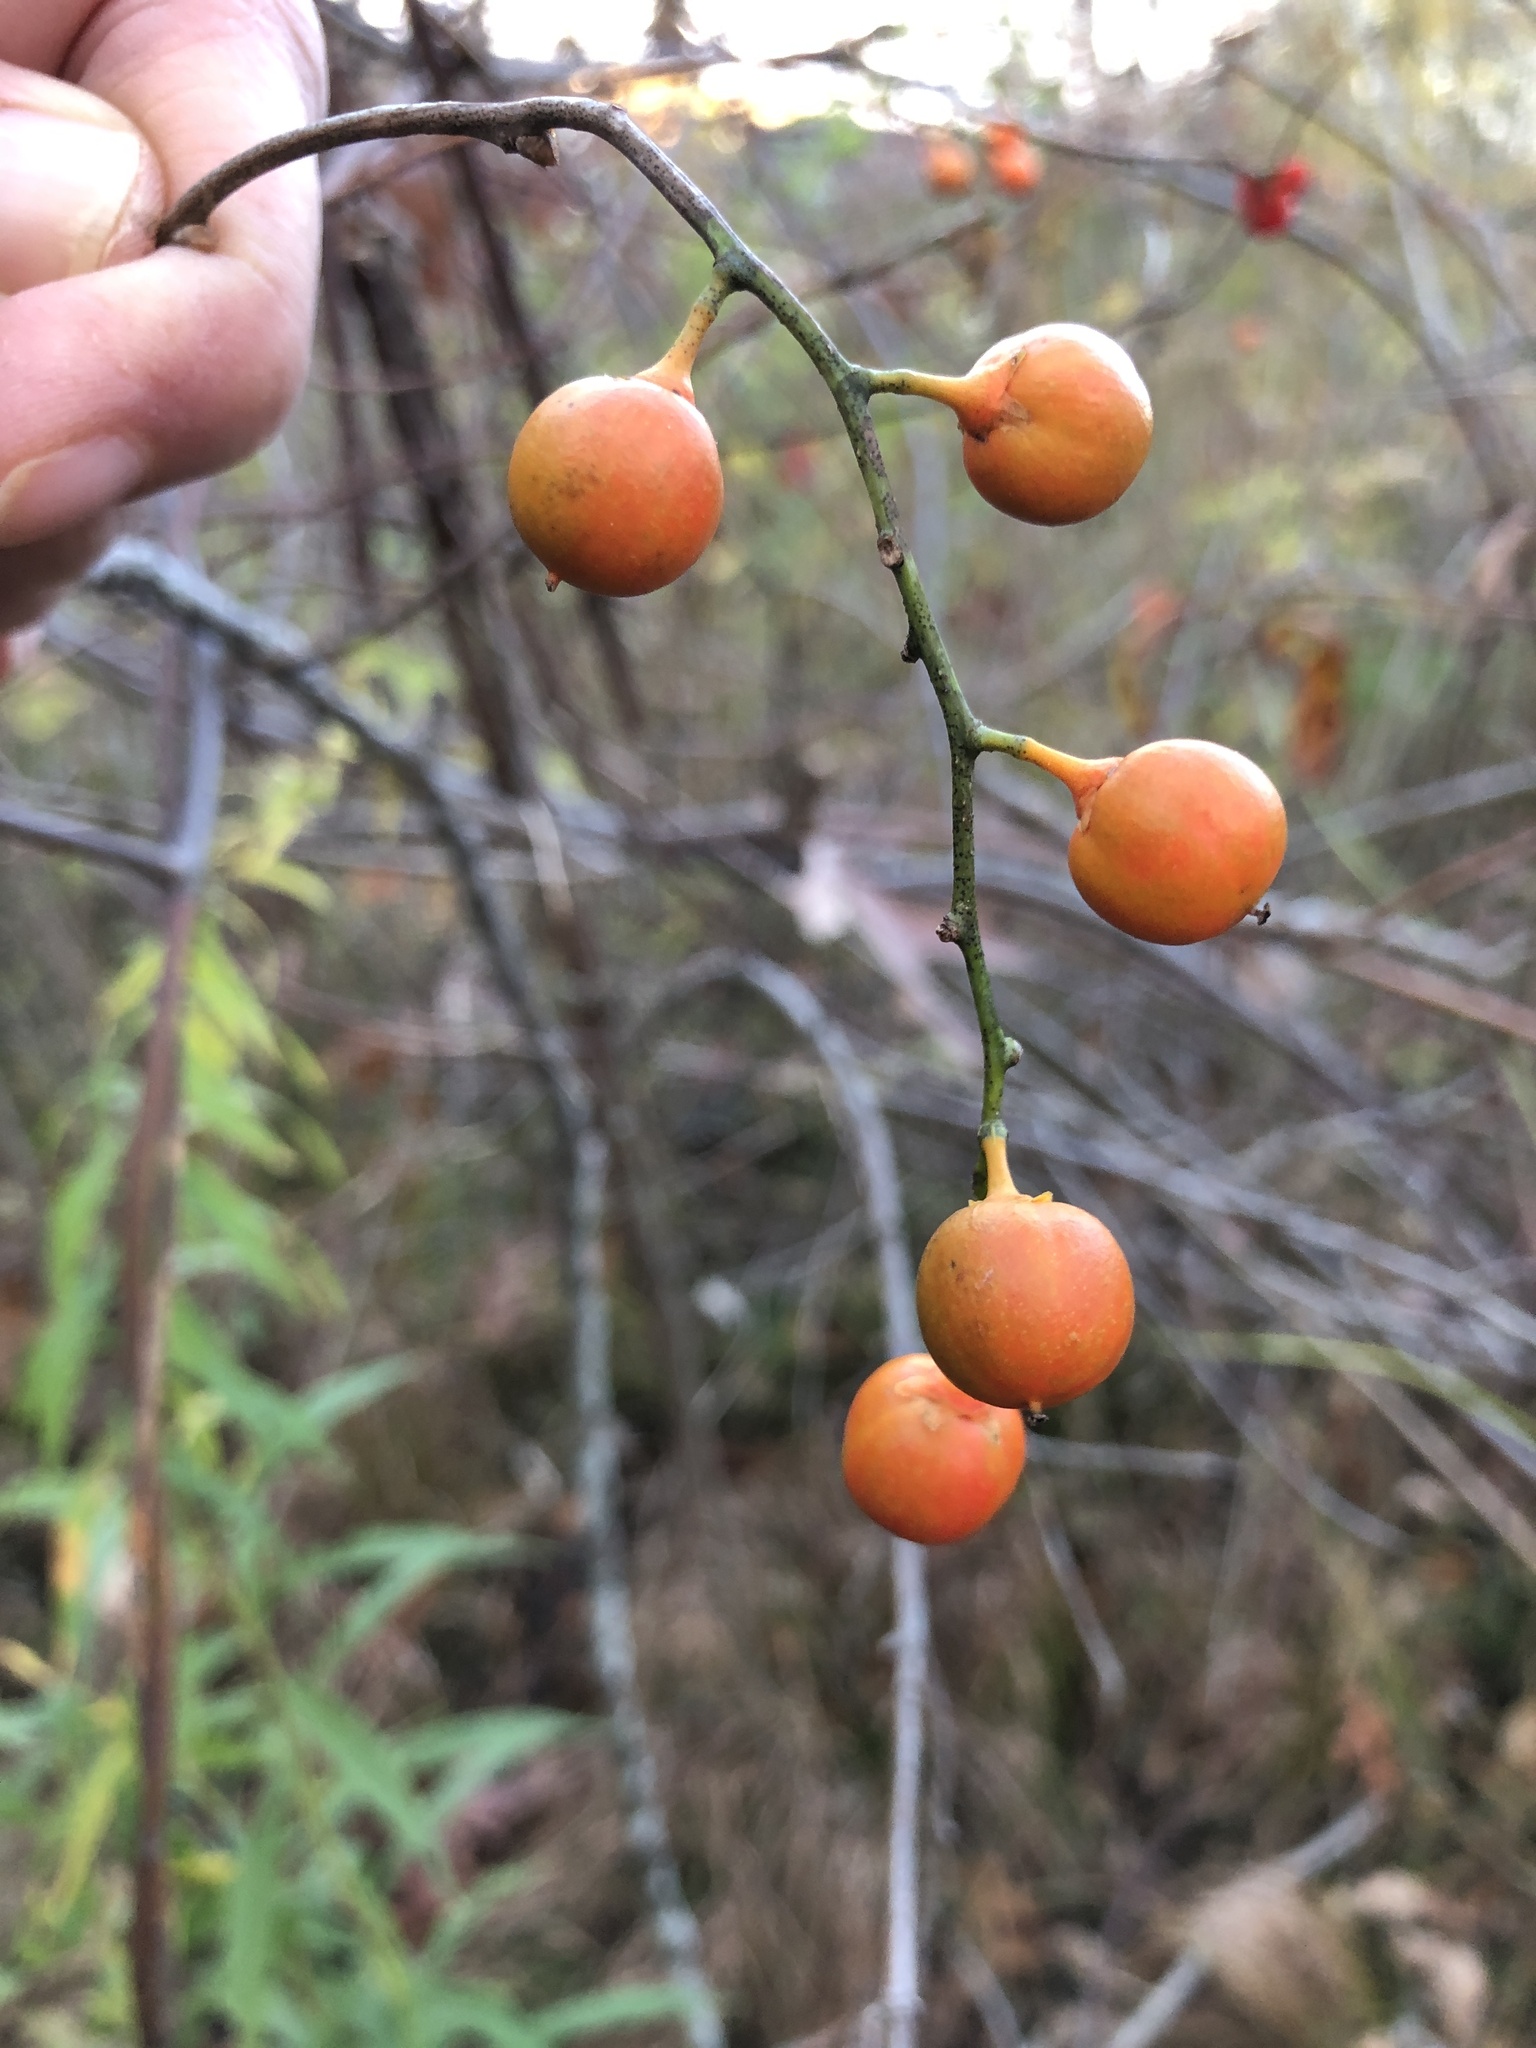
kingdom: Plantae
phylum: Tracheophyta
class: Magnoliopsida
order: Celastrales
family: Celastraceae
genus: Celastrus
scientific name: Celastrus scandens
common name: American bittersweet
